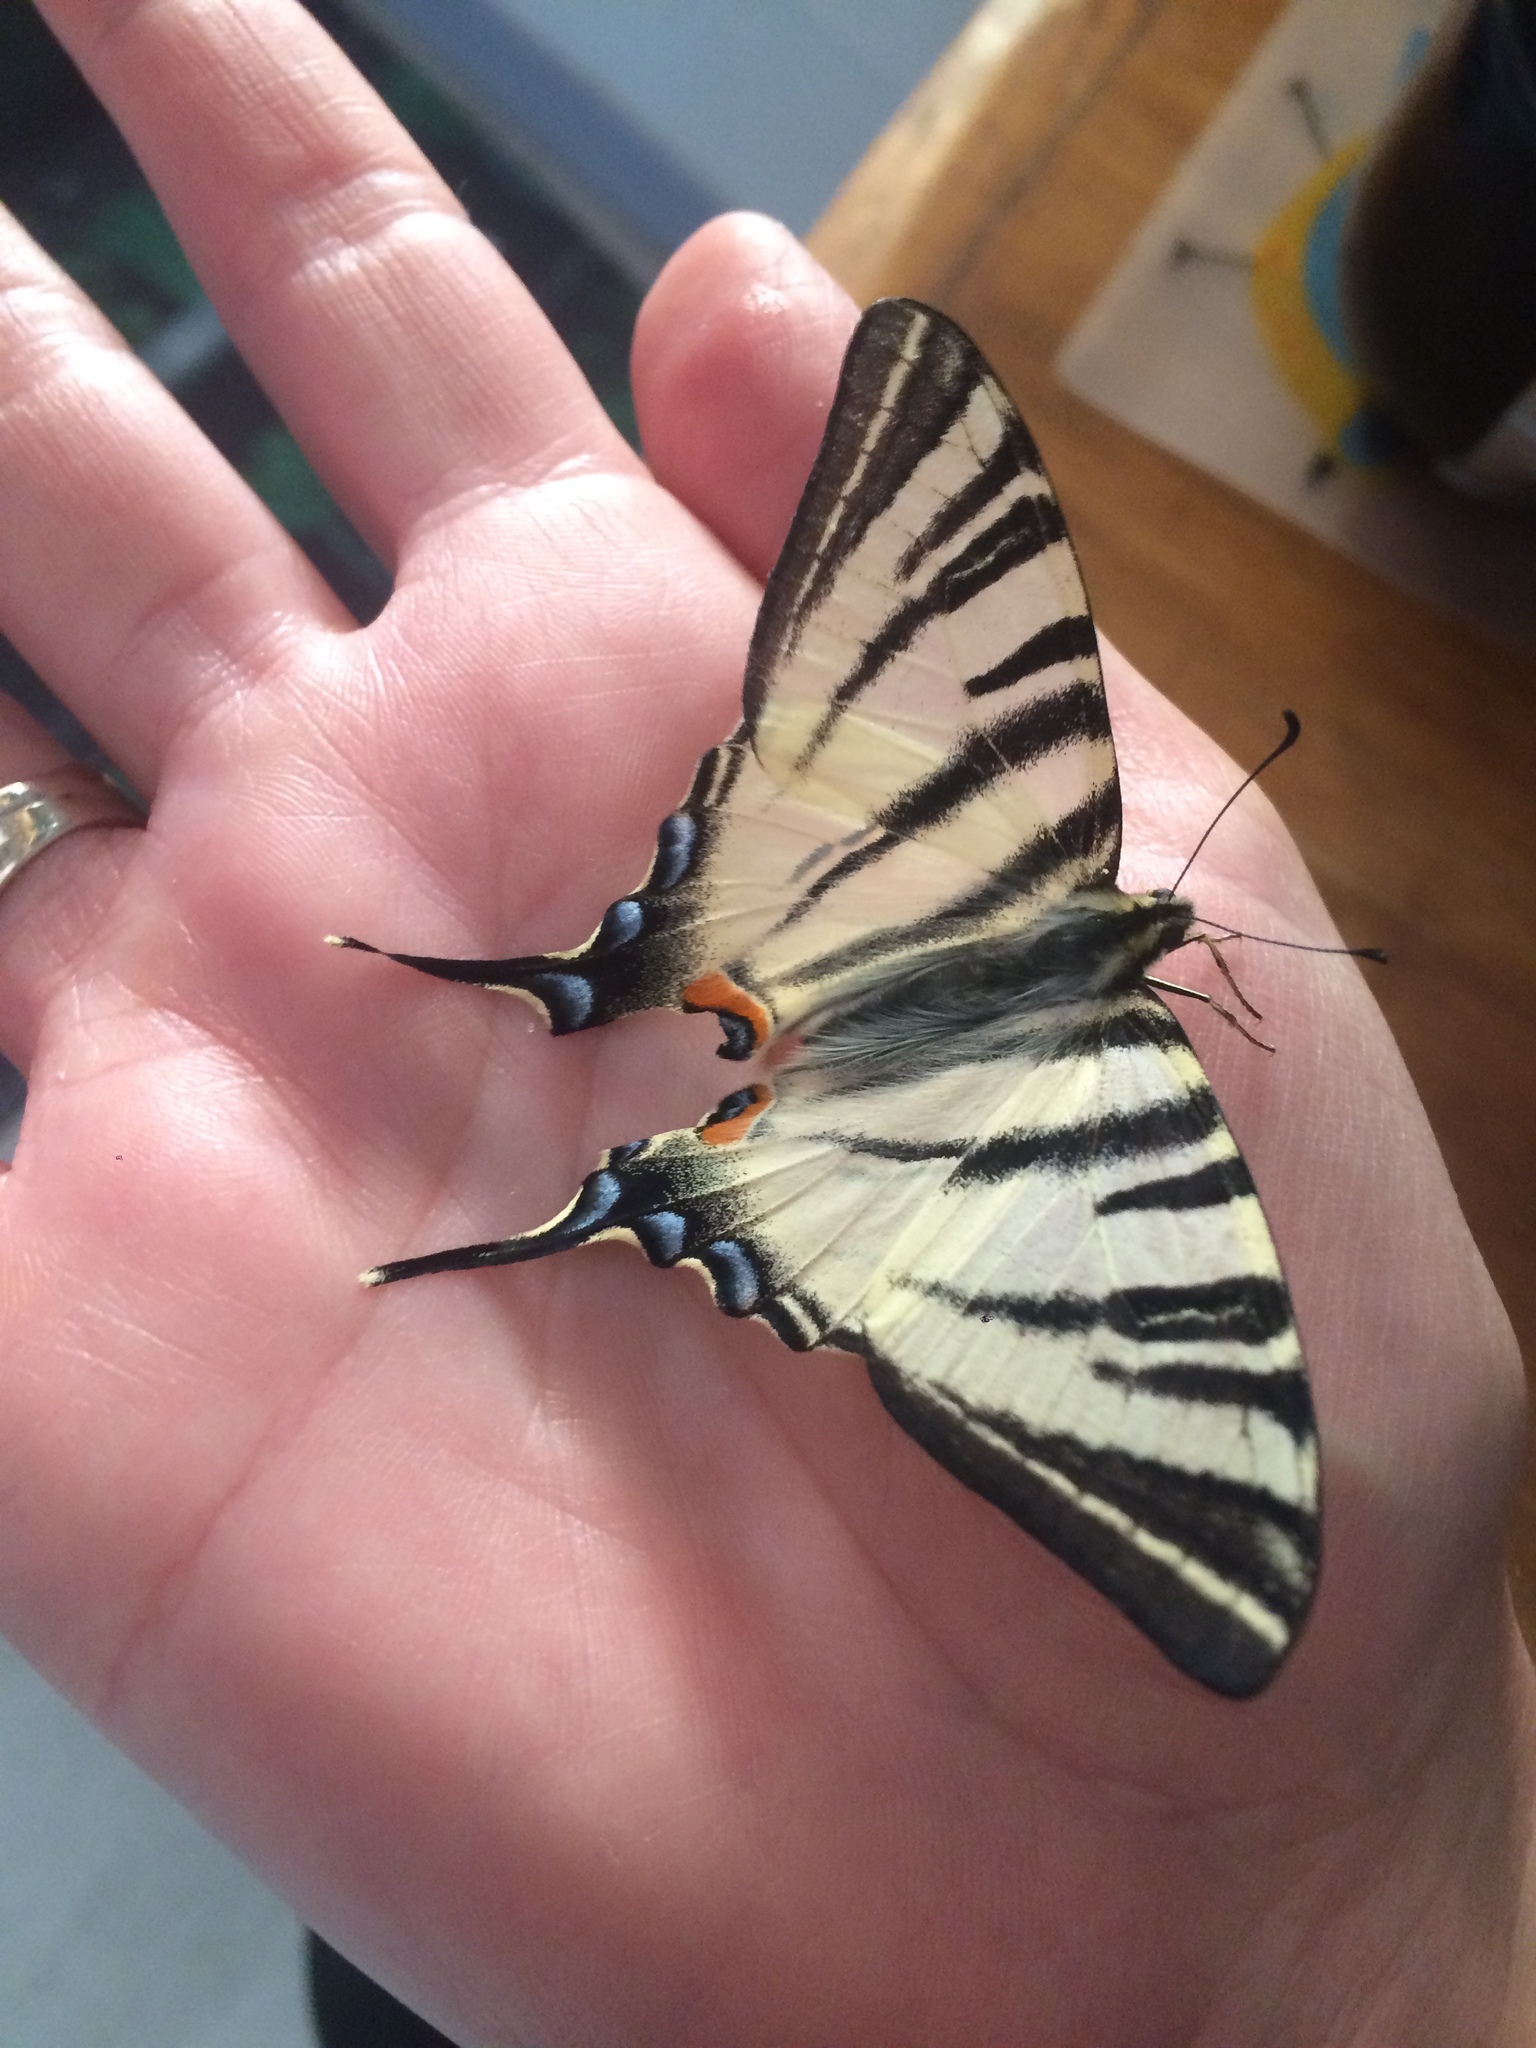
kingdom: Animalia
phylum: Arthropoda
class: Insecta
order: Lepidoptera
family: Papilionidae
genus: Iphiclides
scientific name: Iphiclides podalirius
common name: Scarce swallowtail
